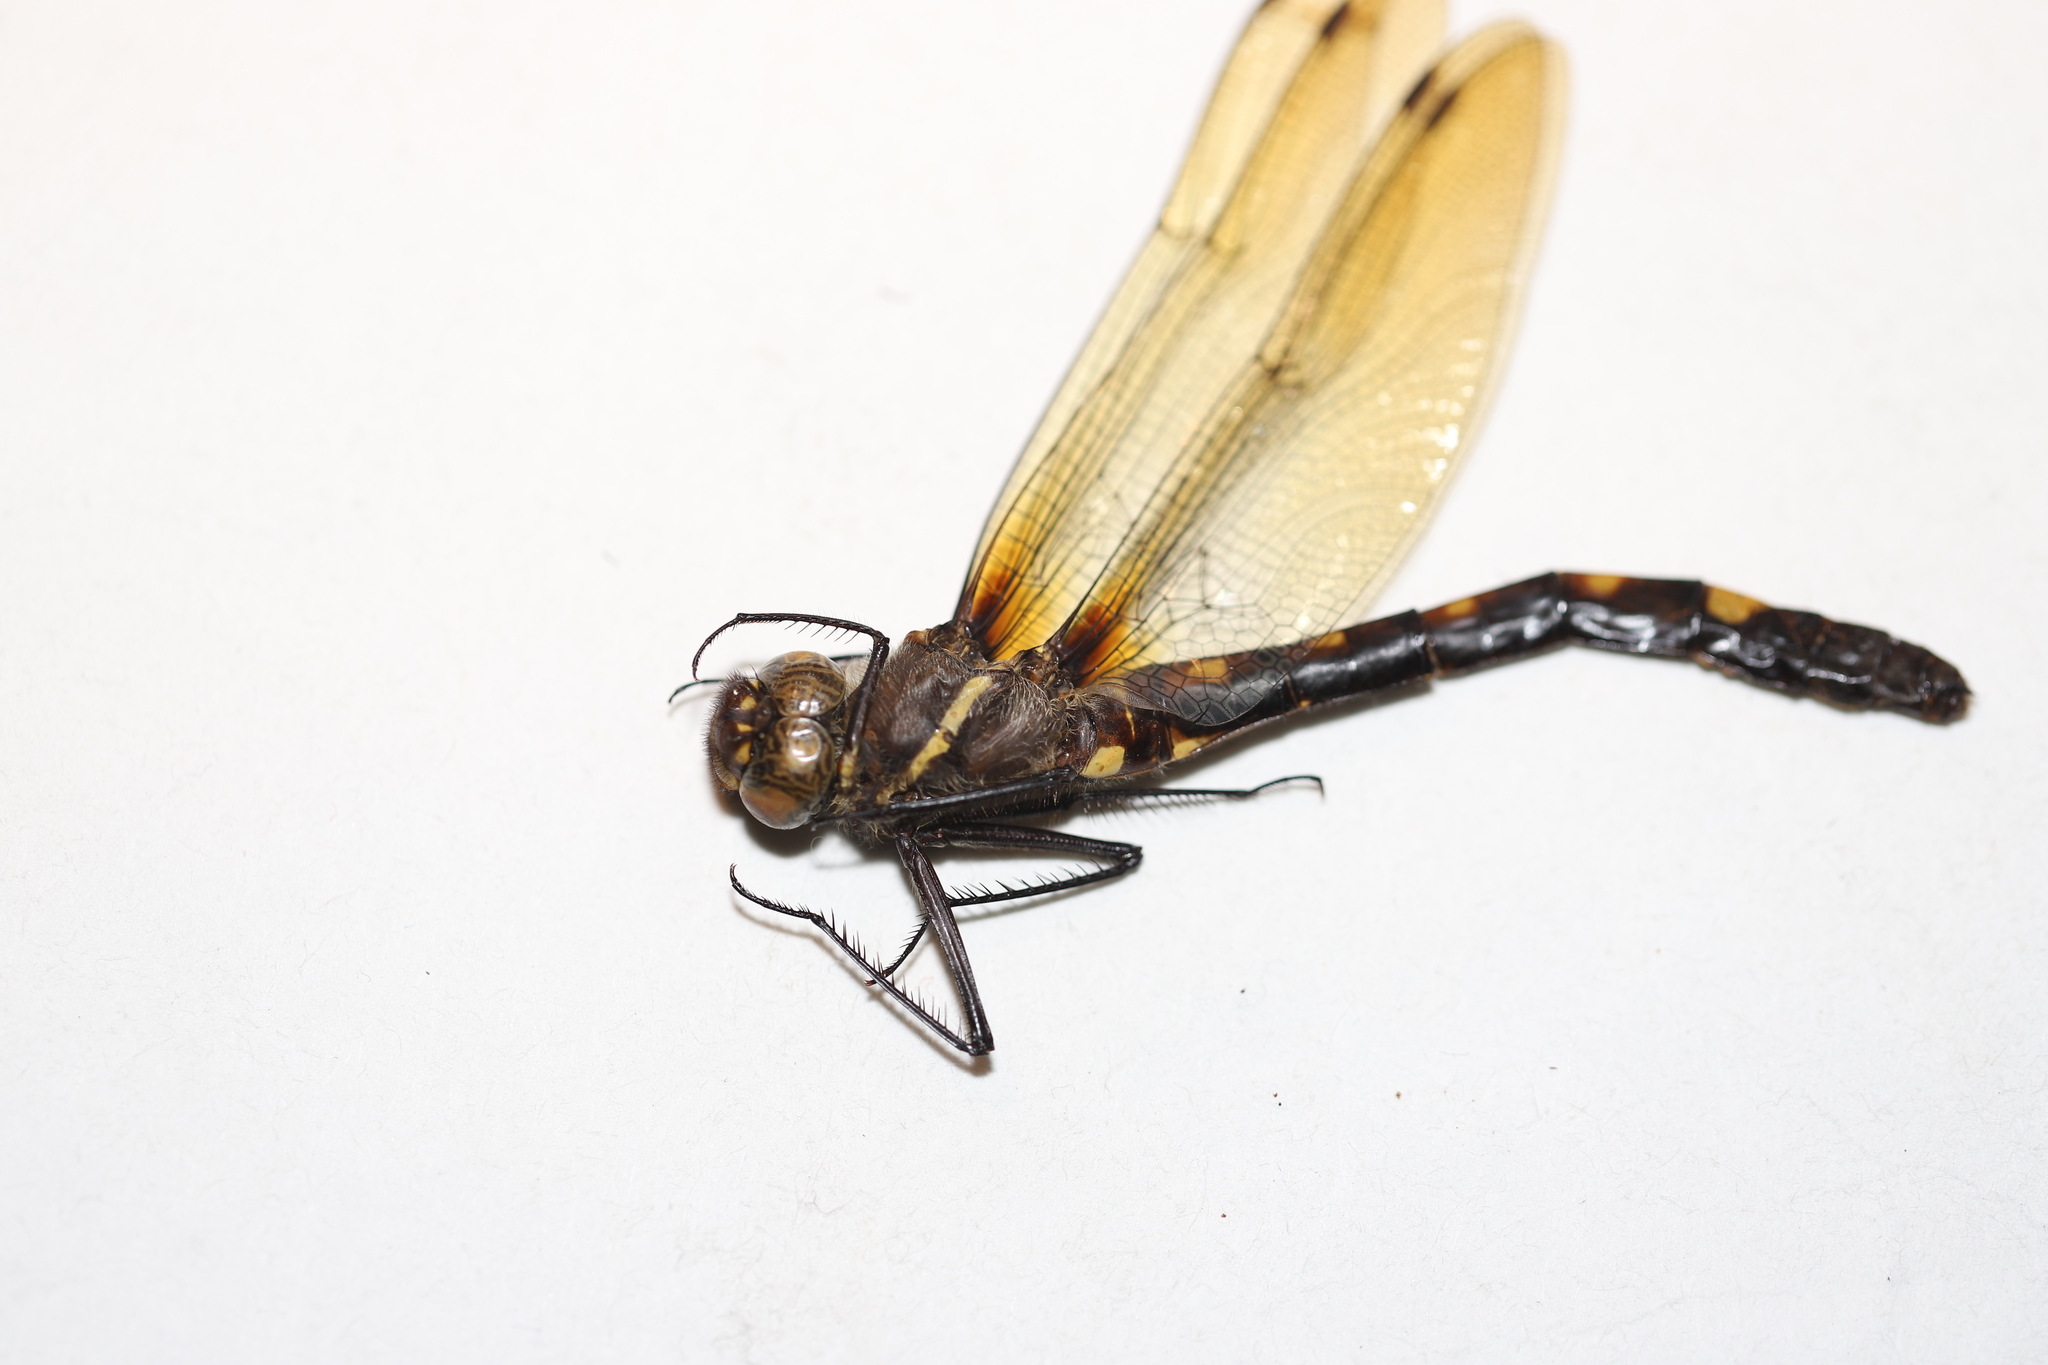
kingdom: Animalia
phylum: Arthropoda
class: Insecta
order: Odonata
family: Macromiidae
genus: Macromia
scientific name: Macromia illinoiensis
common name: Swift river cruiser
